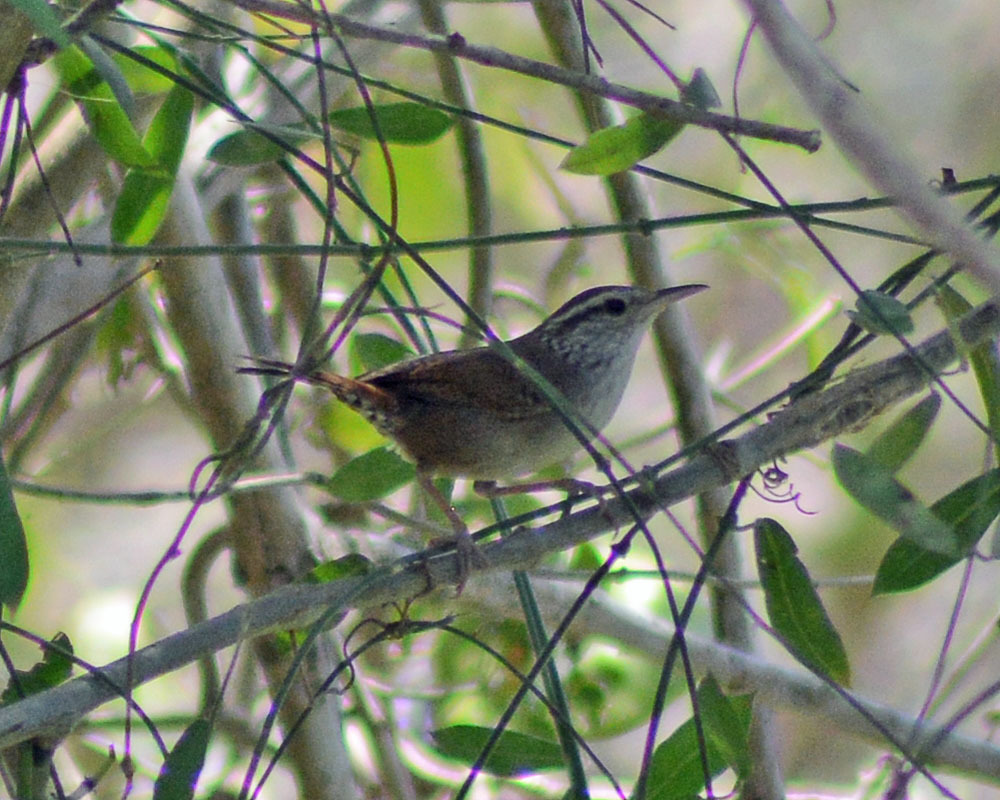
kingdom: Animalia
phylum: Chordata
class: Aves
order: Passeriformes
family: Troglodytidae
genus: Thryophilus
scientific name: Thryophilus sinaloa
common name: Sinaloa wren
